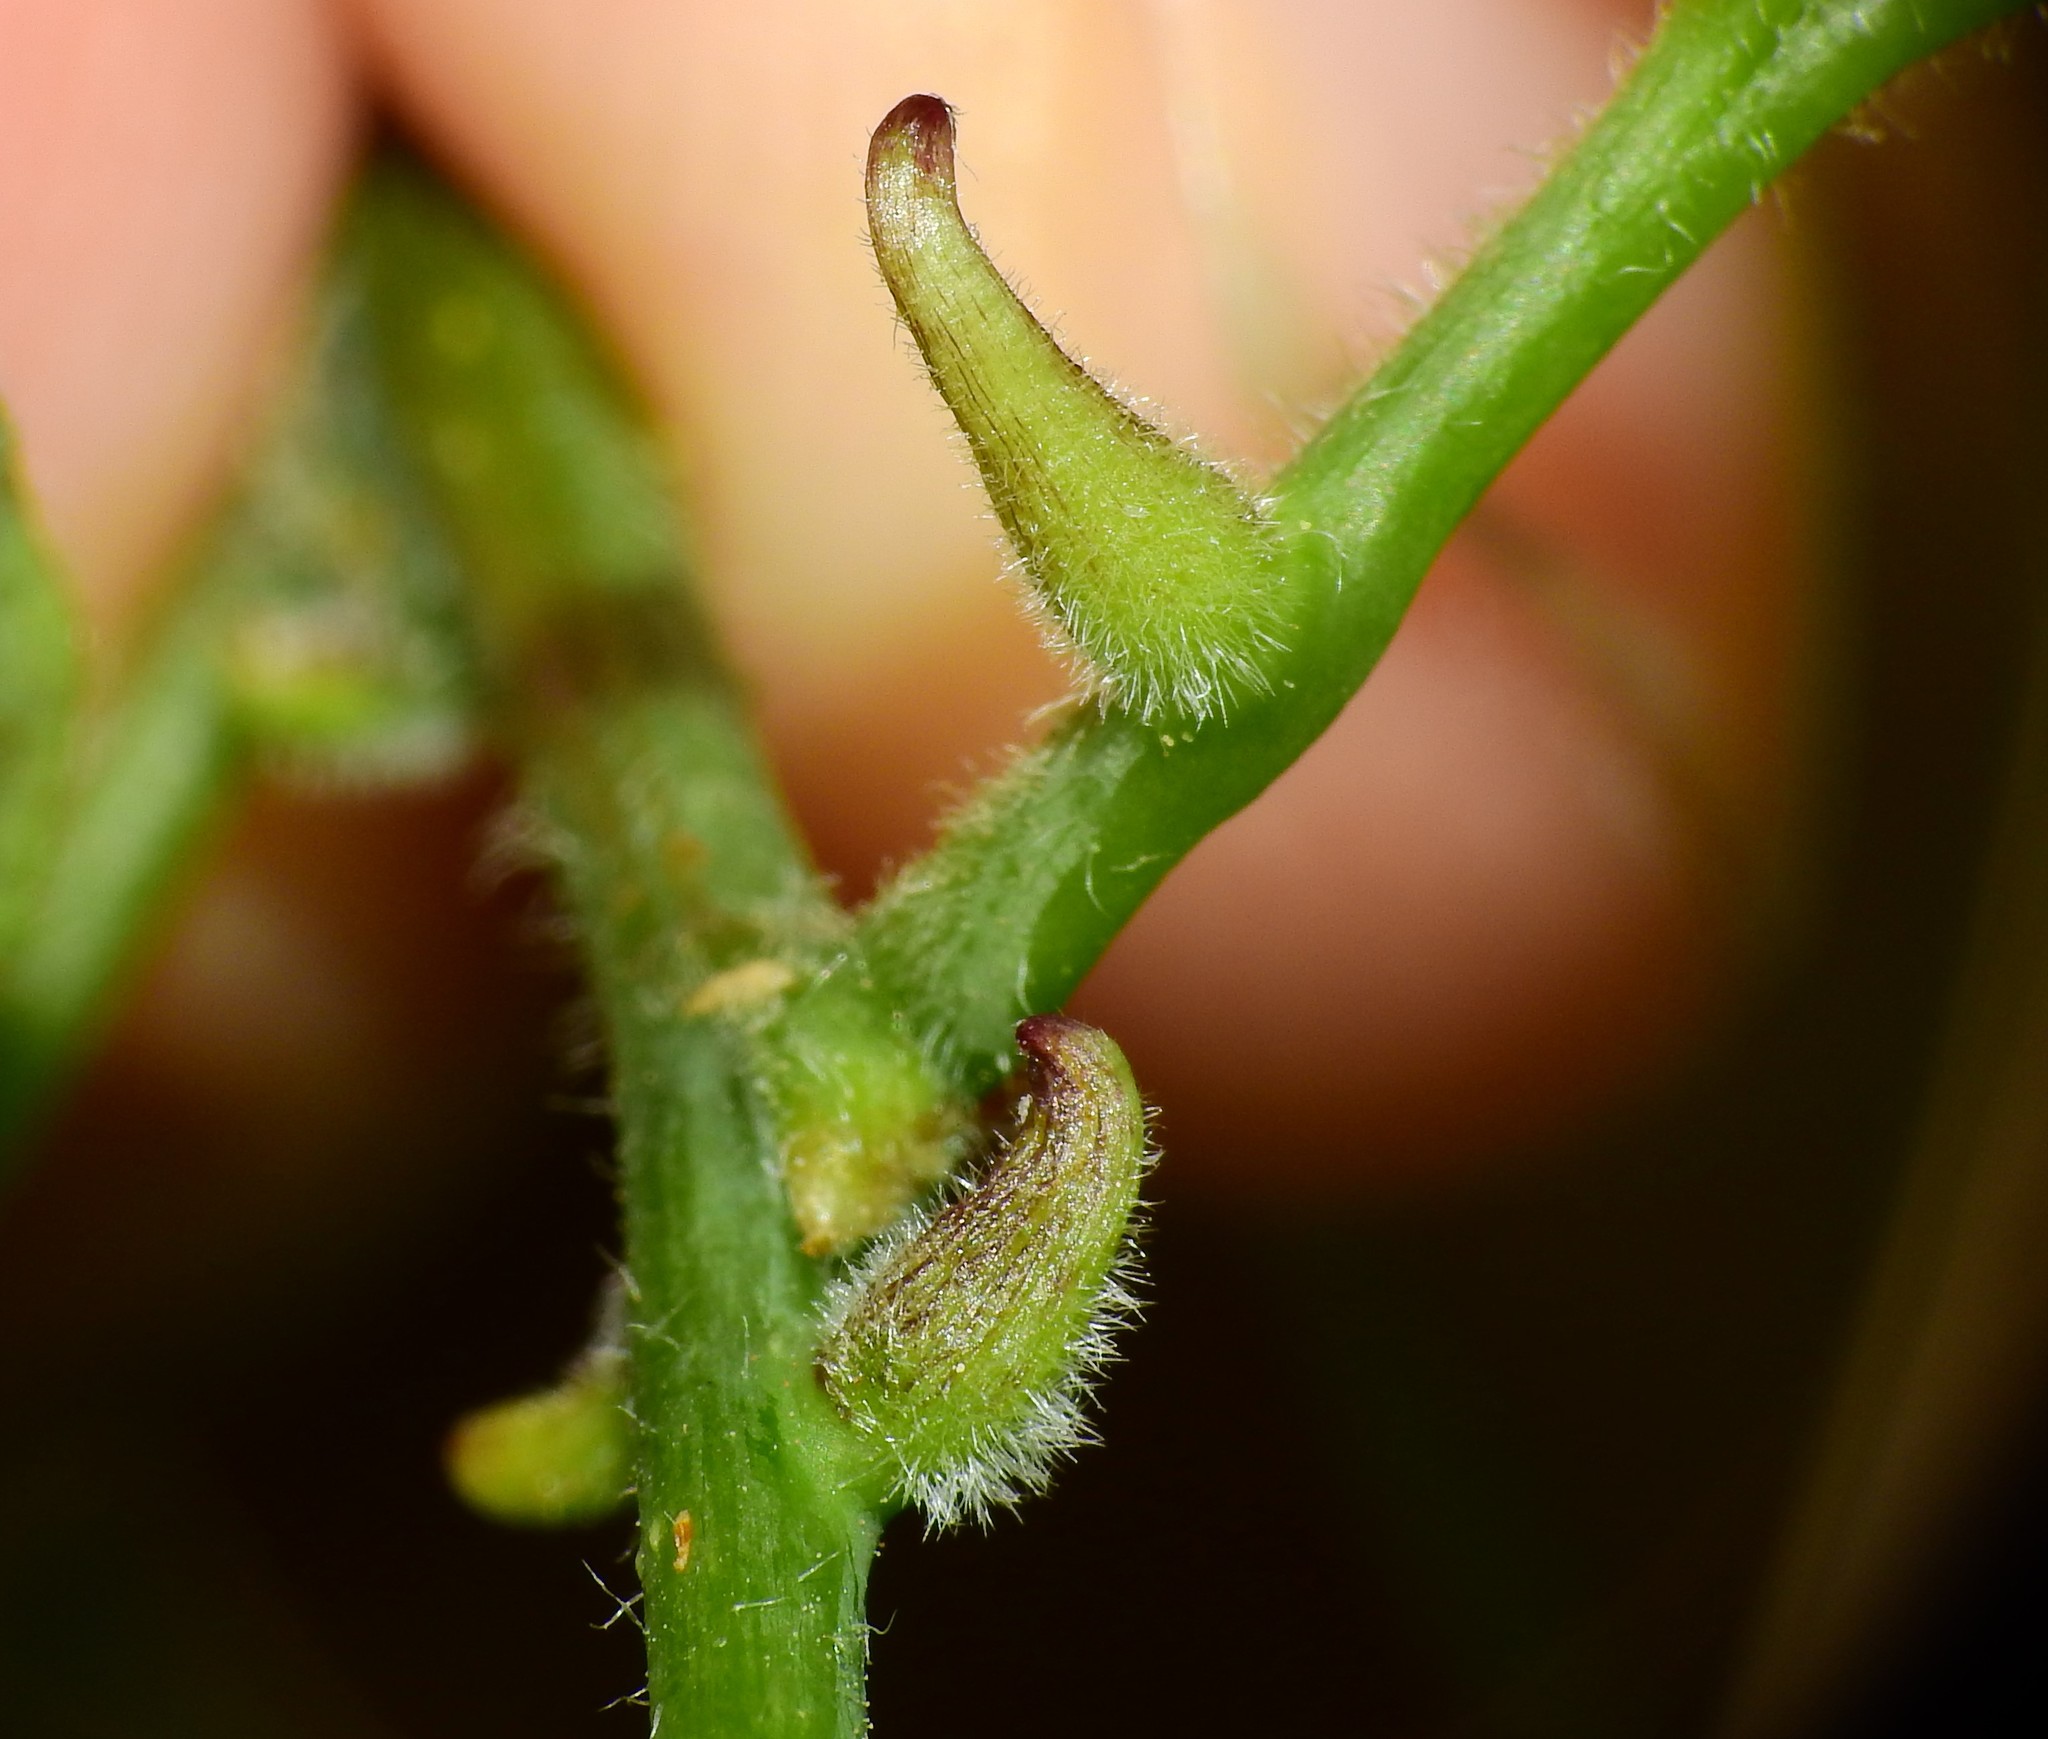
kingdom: Animalia
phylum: Arthropoda
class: Insecta
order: Diptera
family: Cecidomyiidae
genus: Celticecis
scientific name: Celticecis ovata
